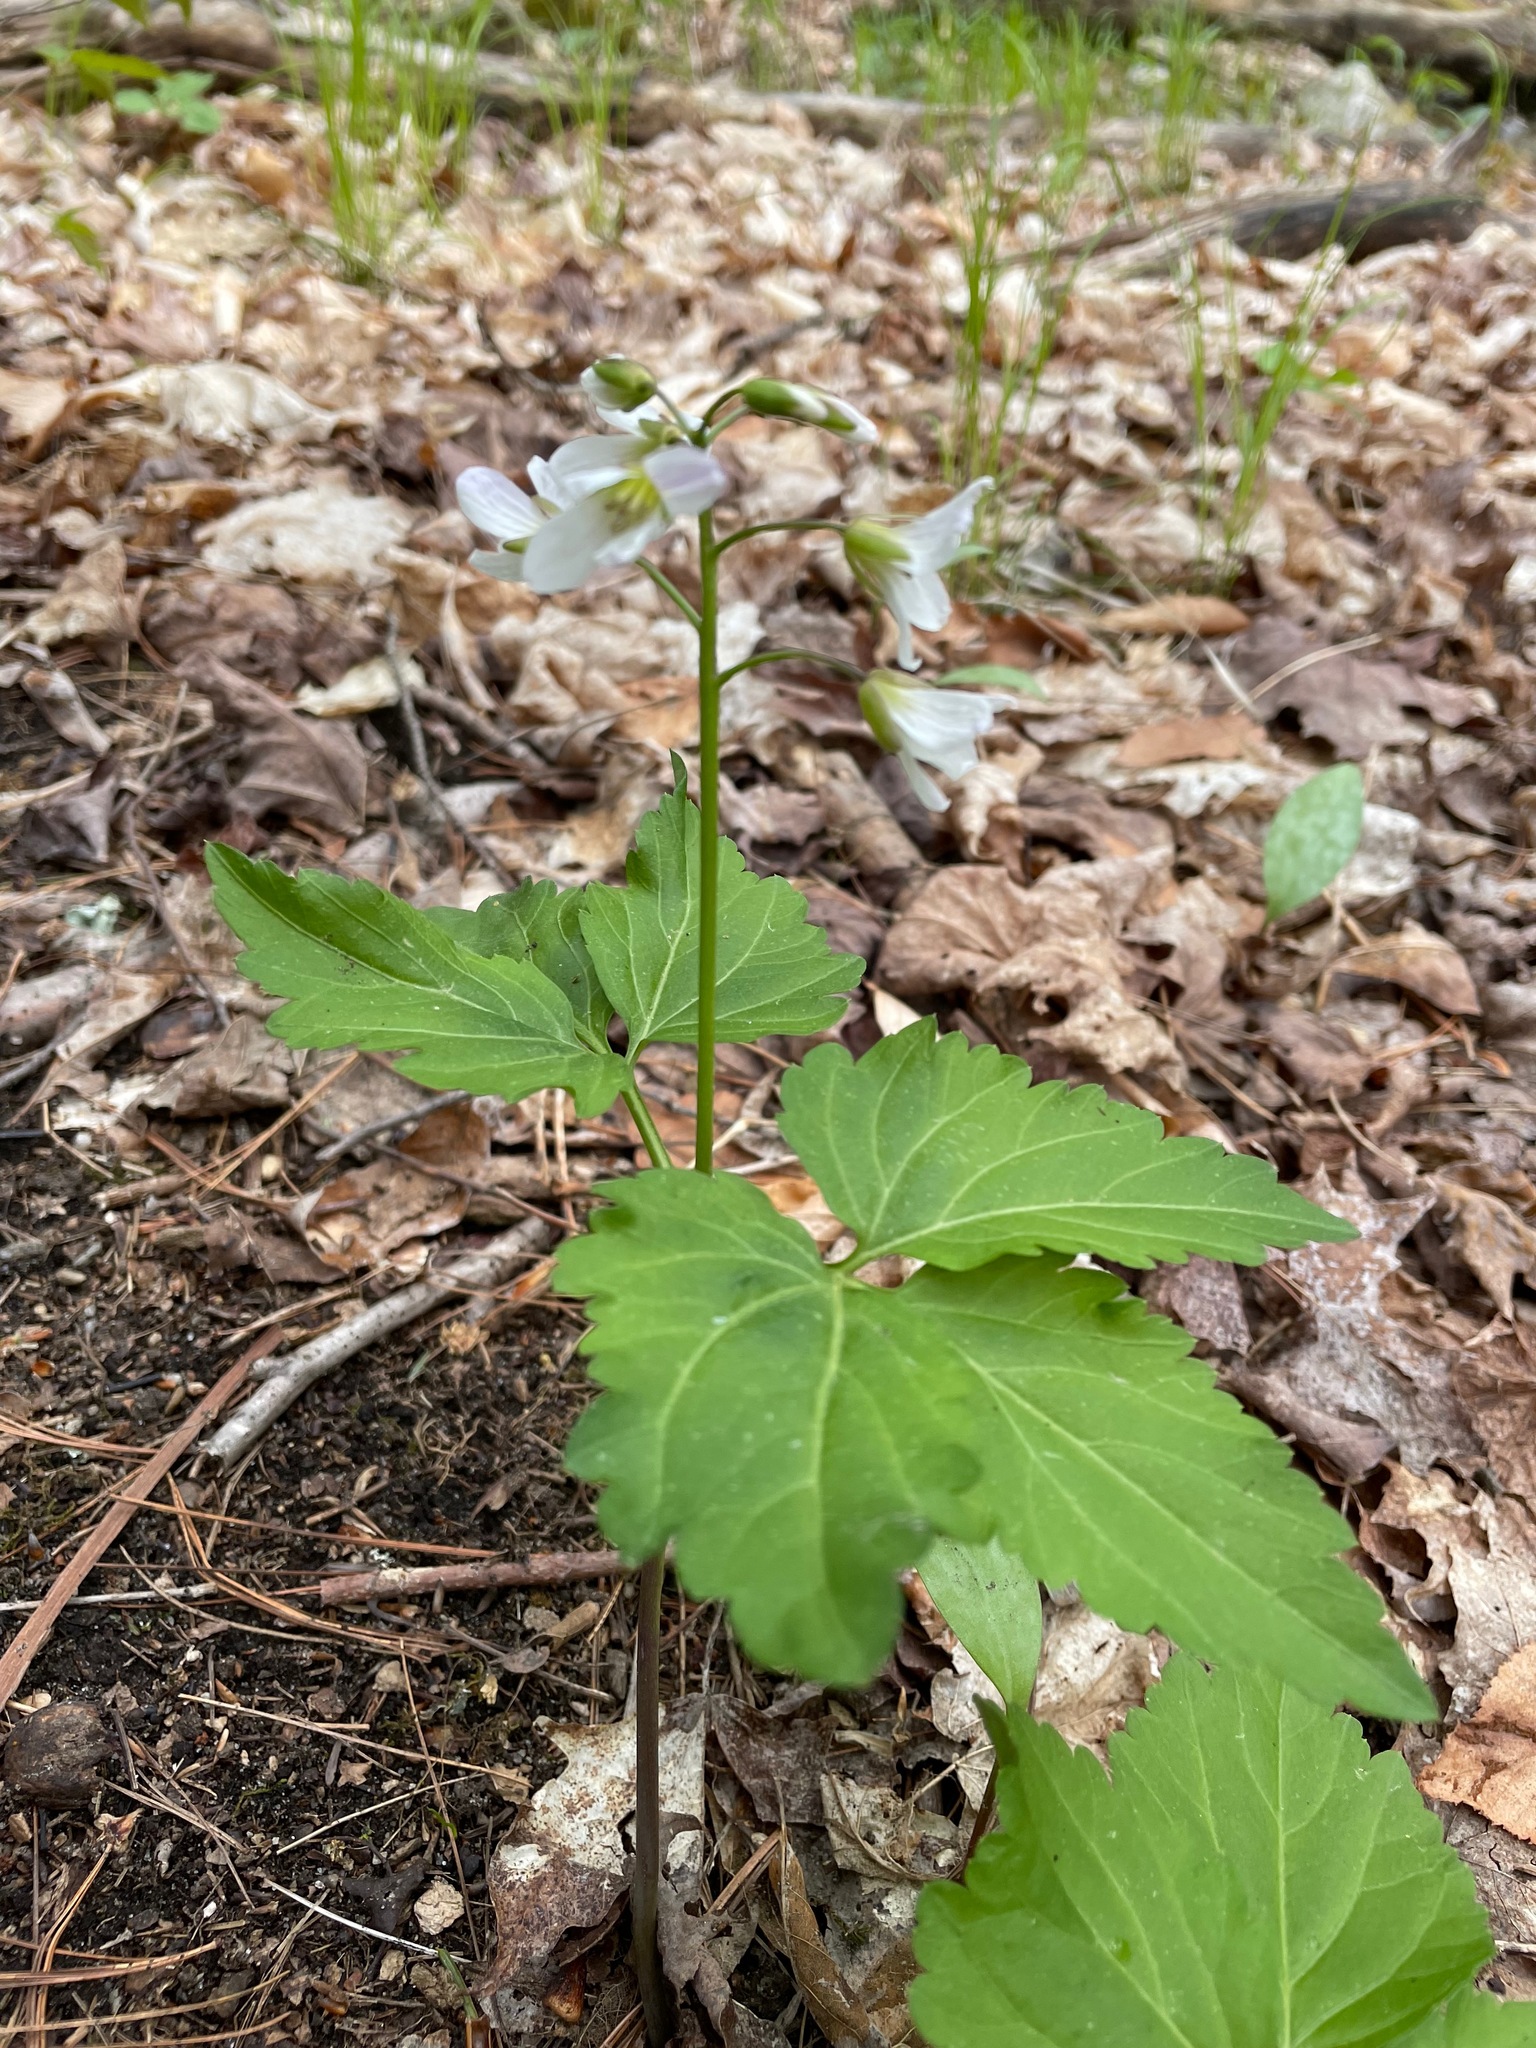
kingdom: Plantae
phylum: Tracheophyta
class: Magnoliopsida
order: Brassicales
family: Brassicaceae
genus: Cardamine
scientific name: Cardamine diphylla
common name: Broad-leaved toothwort
